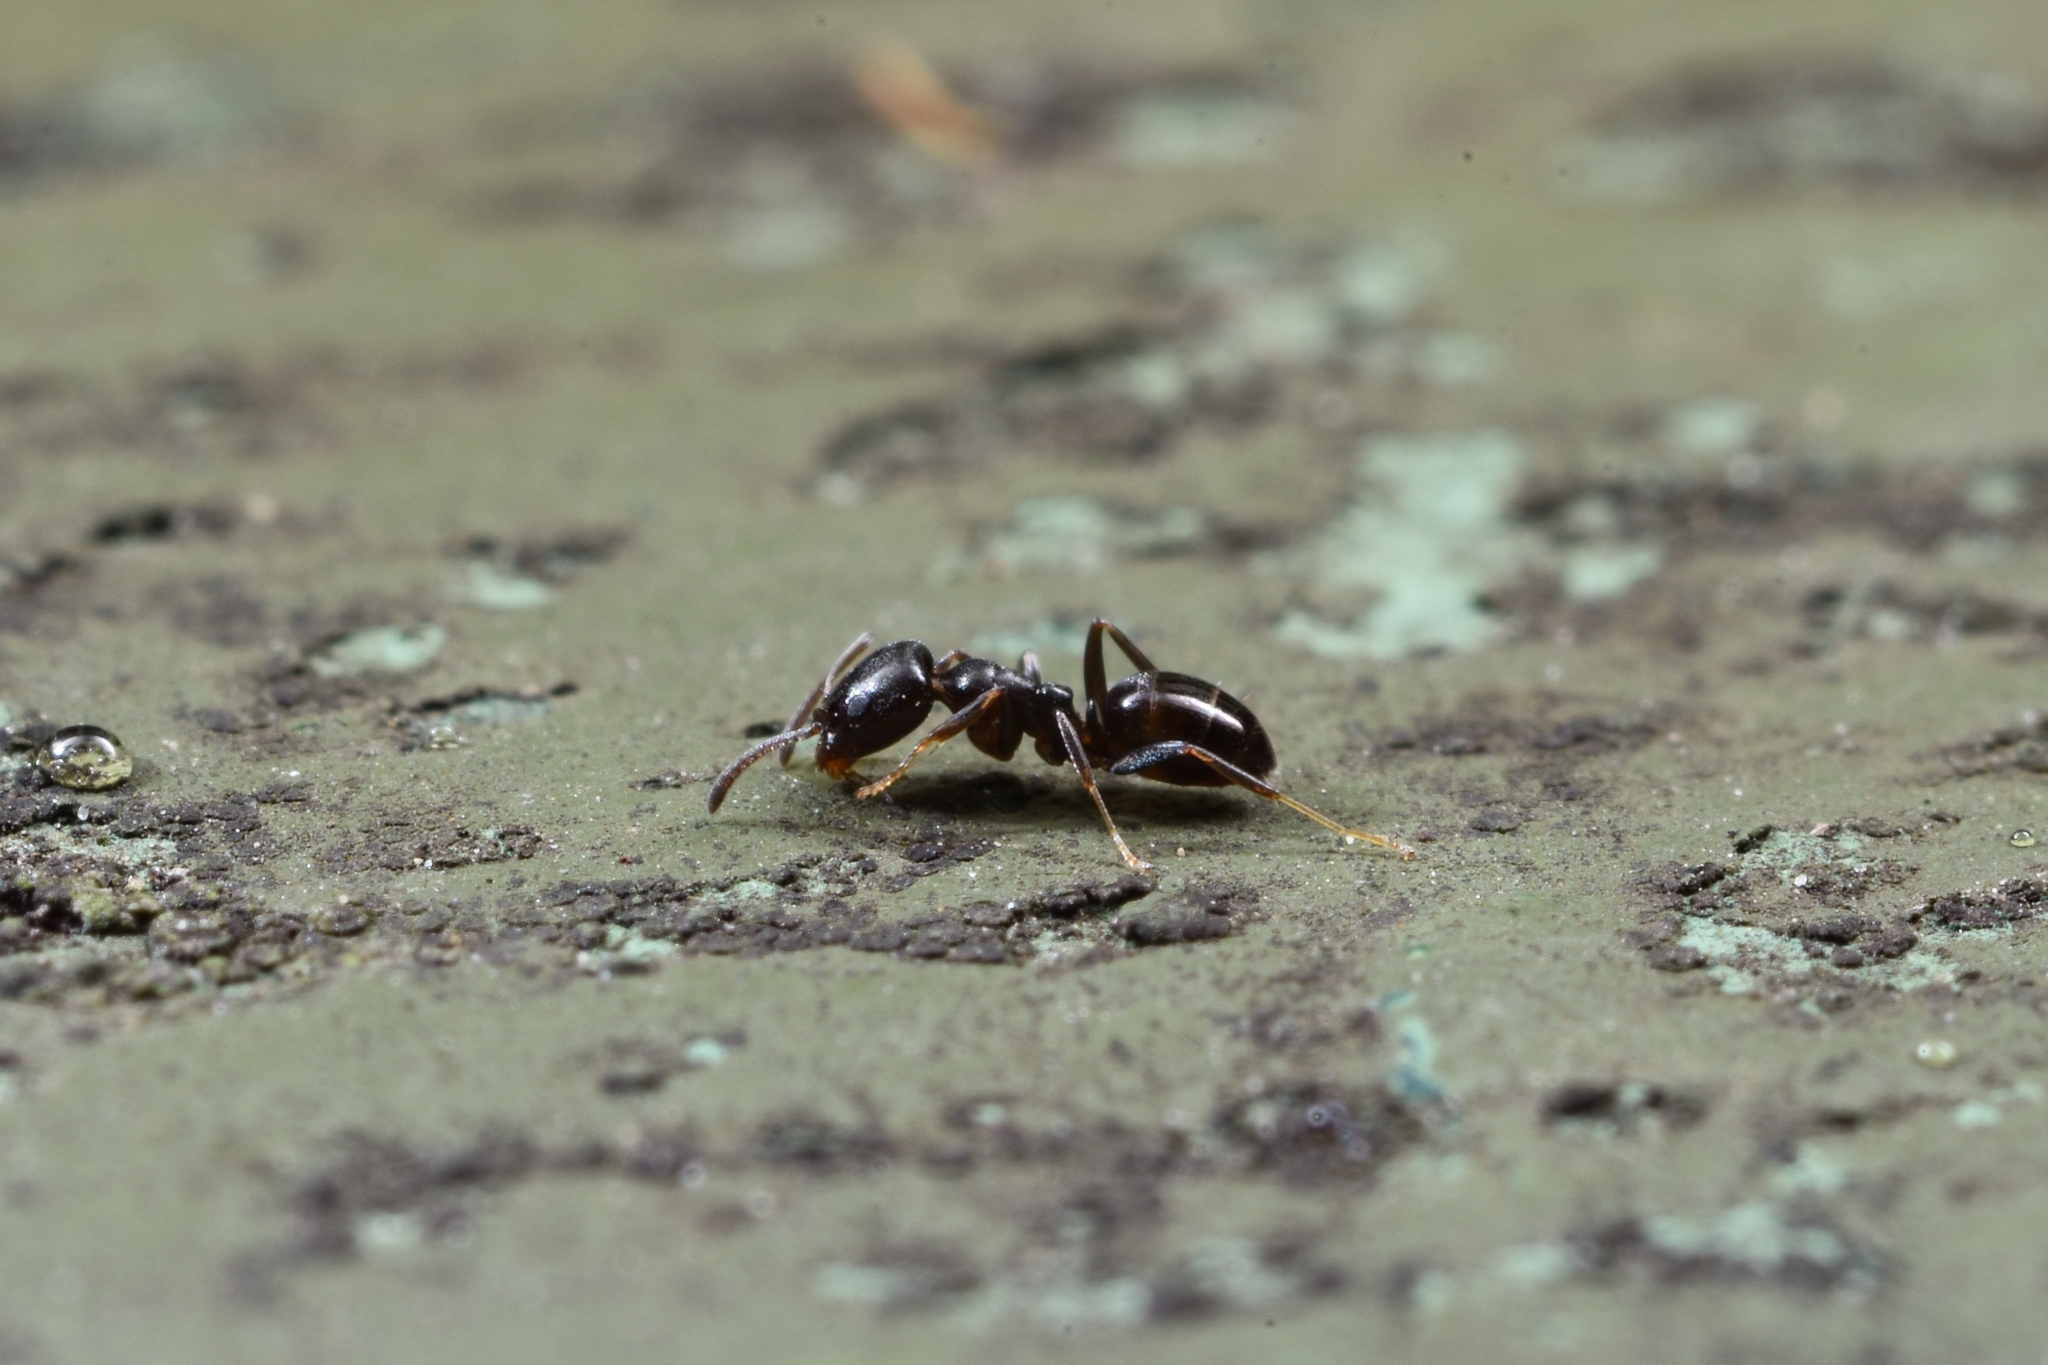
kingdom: Animalia
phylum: Arthropoda
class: Insecta
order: Hymenoptera
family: Formicidae
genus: Ochetellus
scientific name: Ochetellus glaber
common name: Ant
